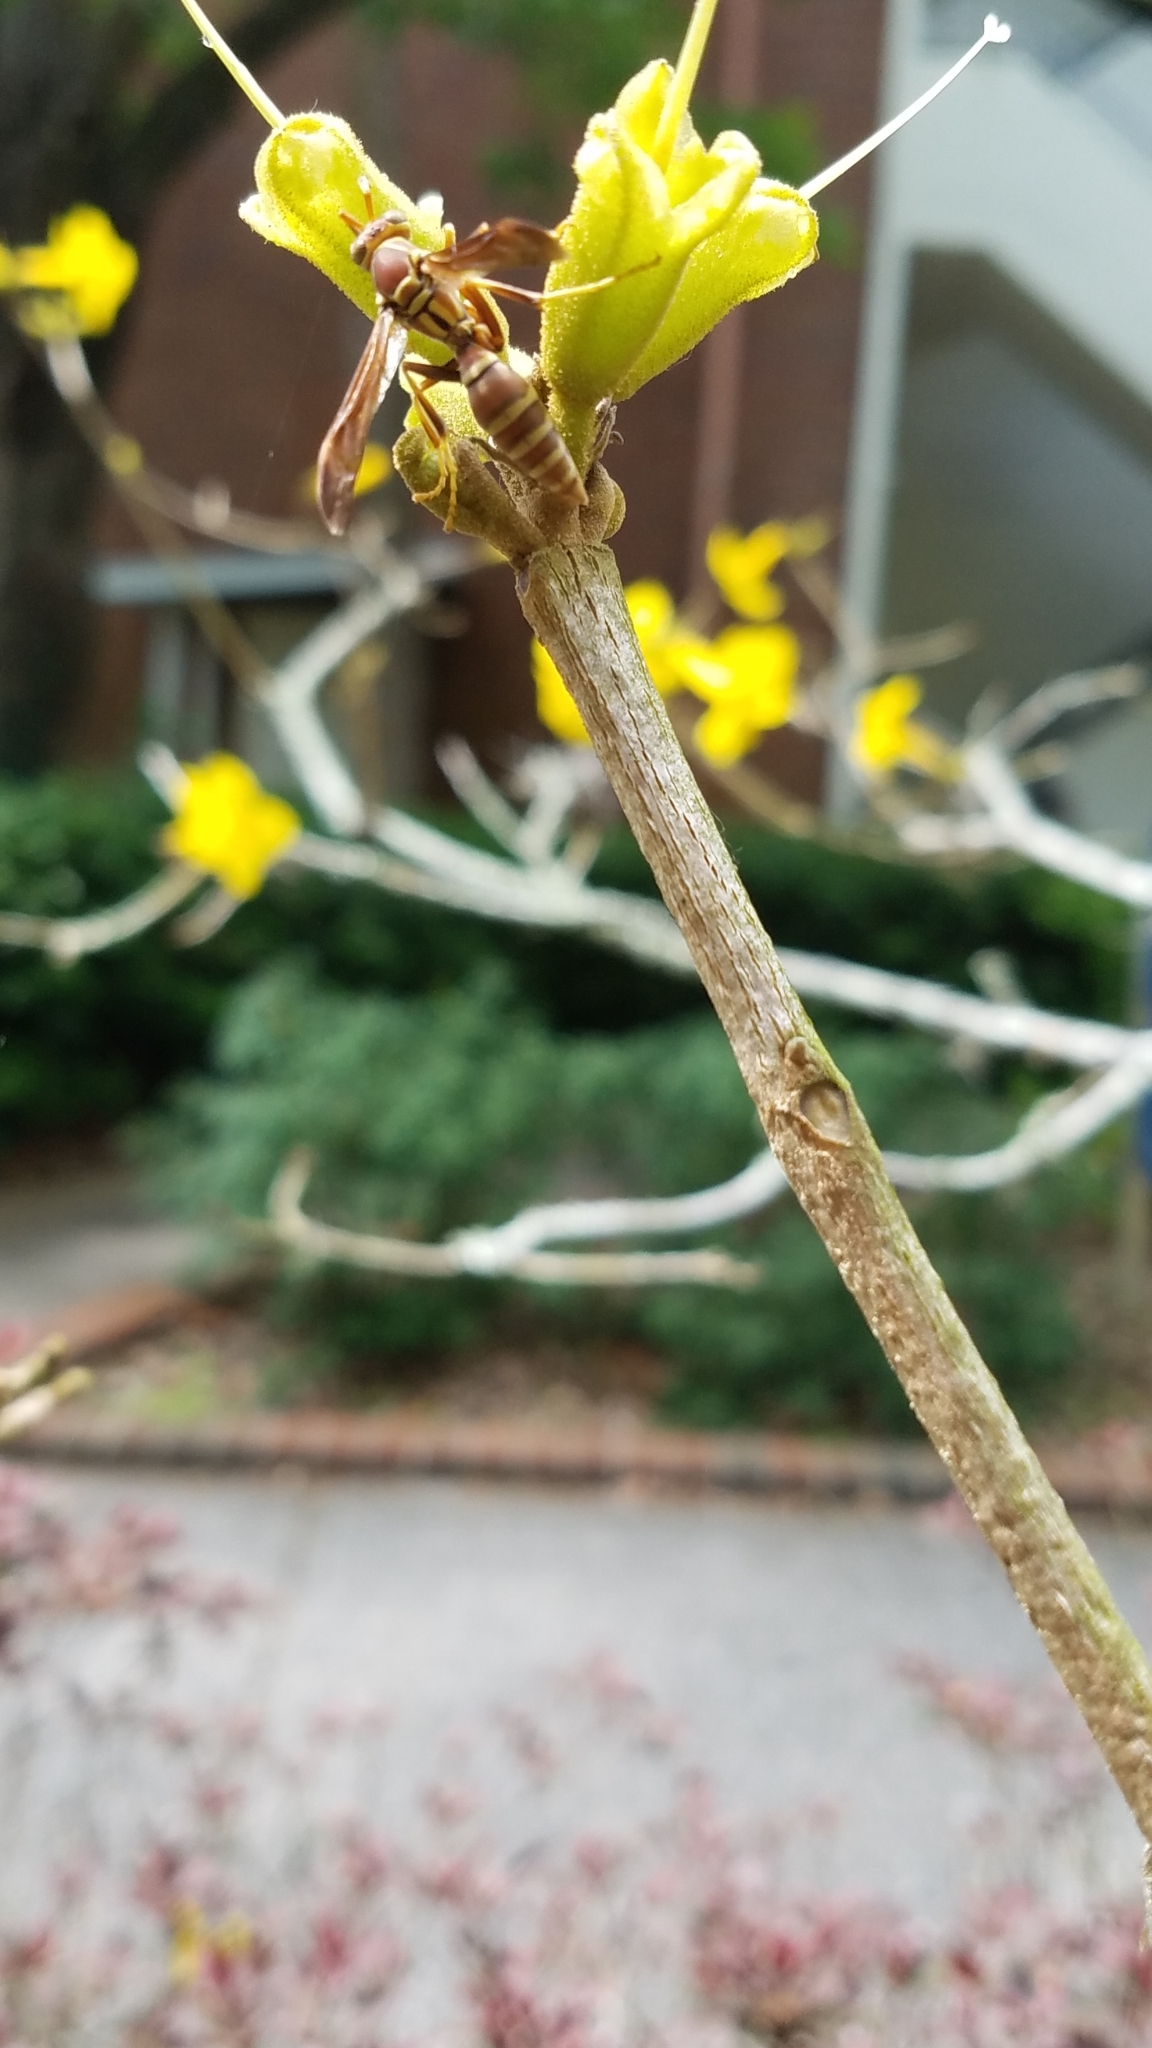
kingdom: Animalia
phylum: Arthropoda
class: Insecta
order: Hymenoptera
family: Eumenidae
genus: Polistes
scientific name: Polistes exclamans
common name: Paper wasp
